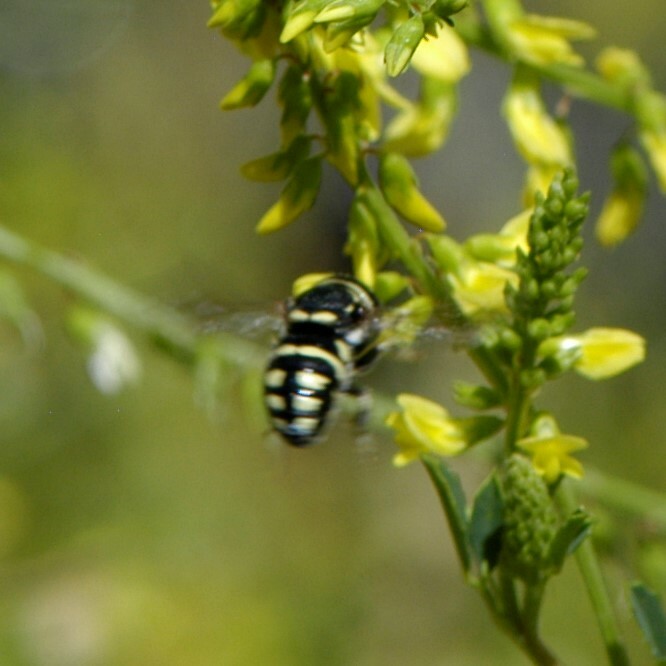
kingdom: Animalia
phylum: Arthropoda
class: Insecta
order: Hymenoptera
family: Megachilidae
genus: Anthidiellum
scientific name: Anthidiellum notatum
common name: Northern rotund-resin bee
